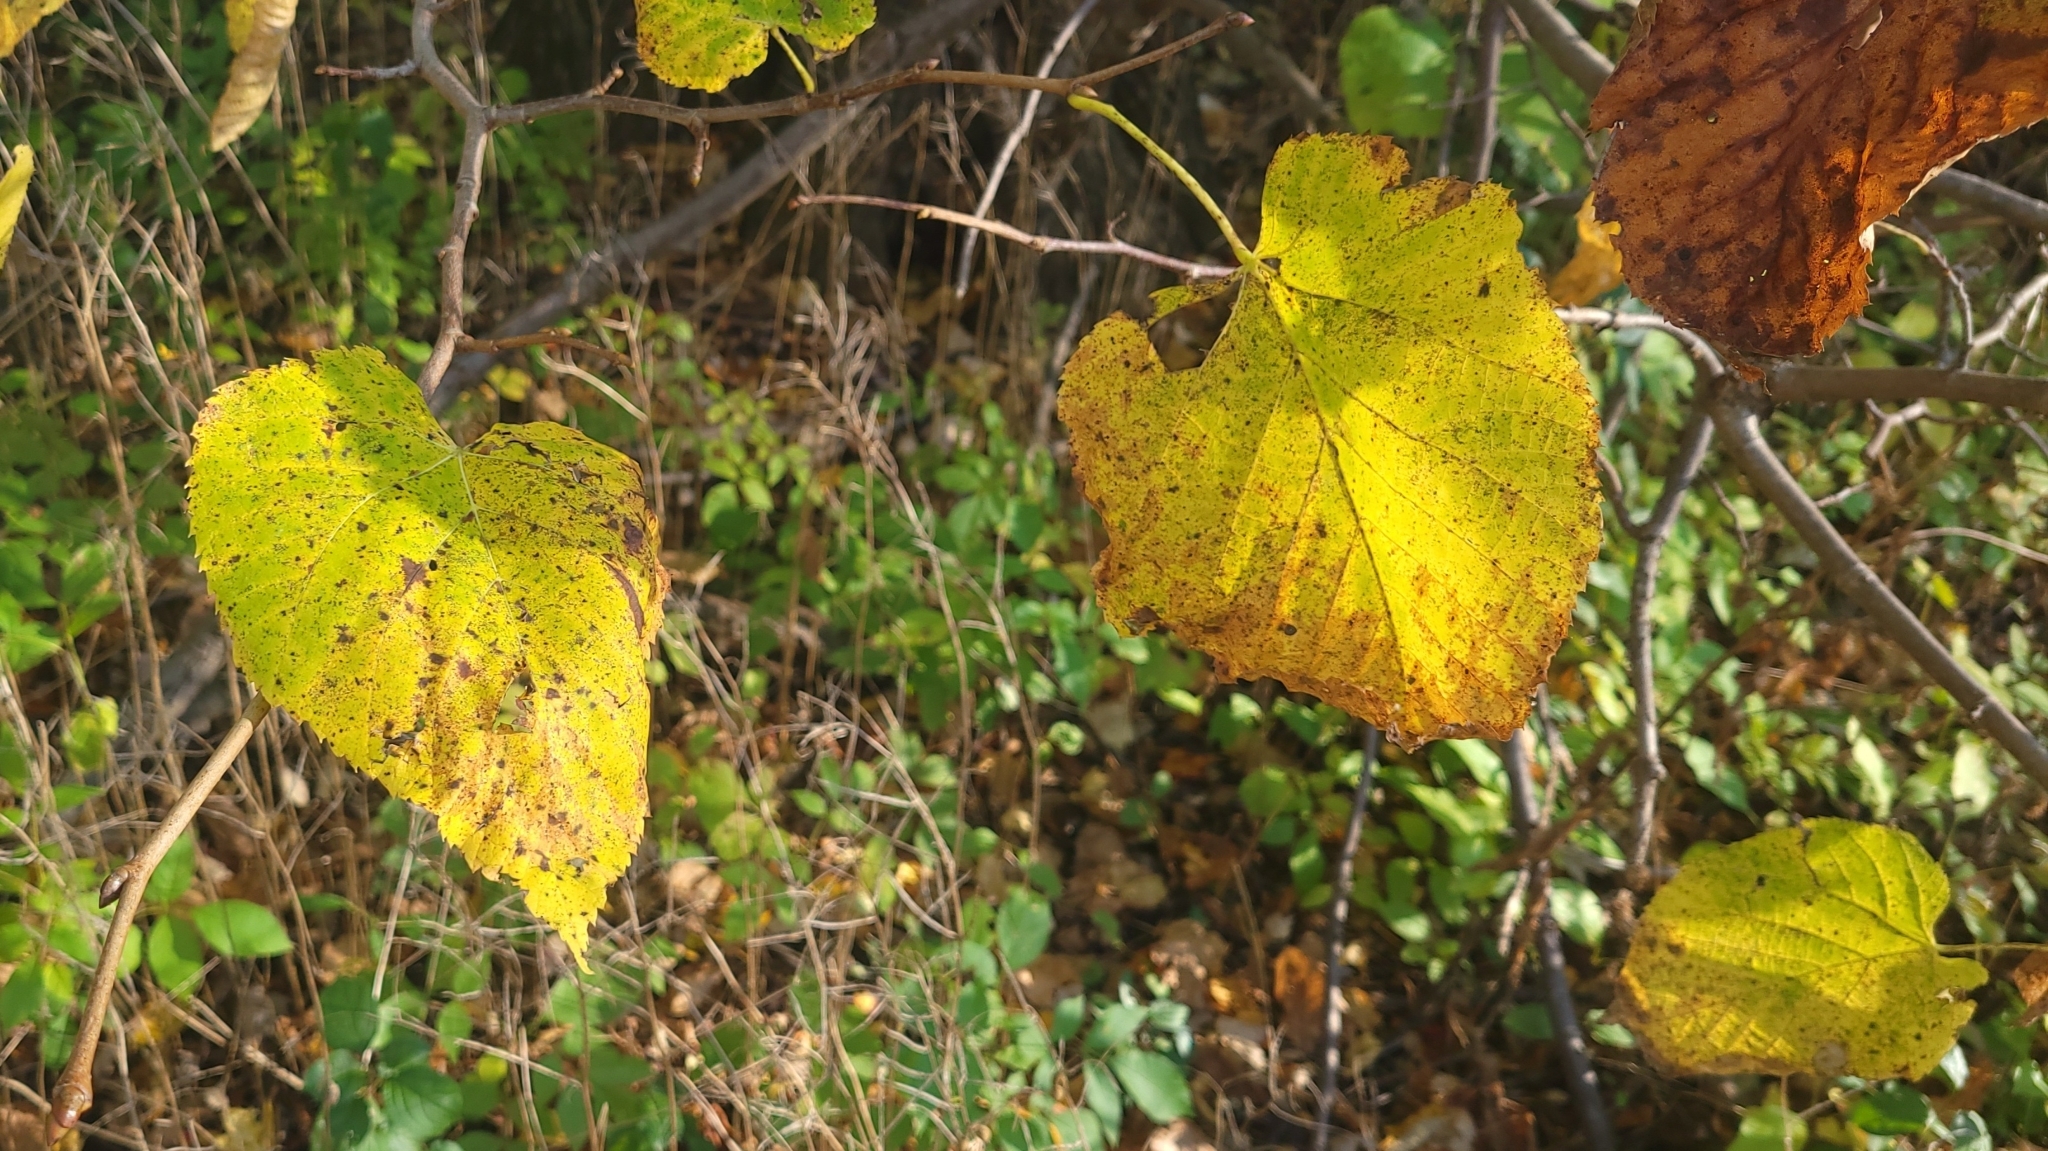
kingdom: Plantae
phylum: Tracheophyta
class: Magnoliopsida
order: Malvales
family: Malvaceae
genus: Tilia
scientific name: Tilia americana
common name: Basswood
